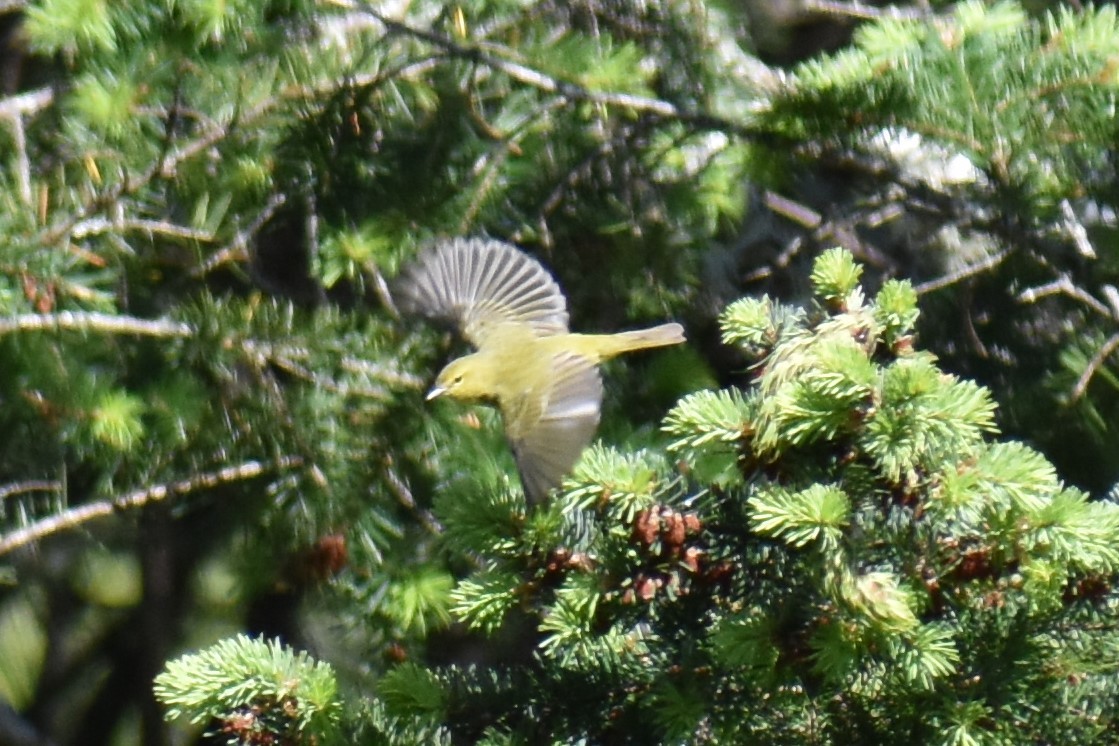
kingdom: Animalia
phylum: Chordata
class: Aves
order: Passeriformes
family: Parulidae
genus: Leiothlypis
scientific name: Leiothlypis celata
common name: Orange-crowned warbler
